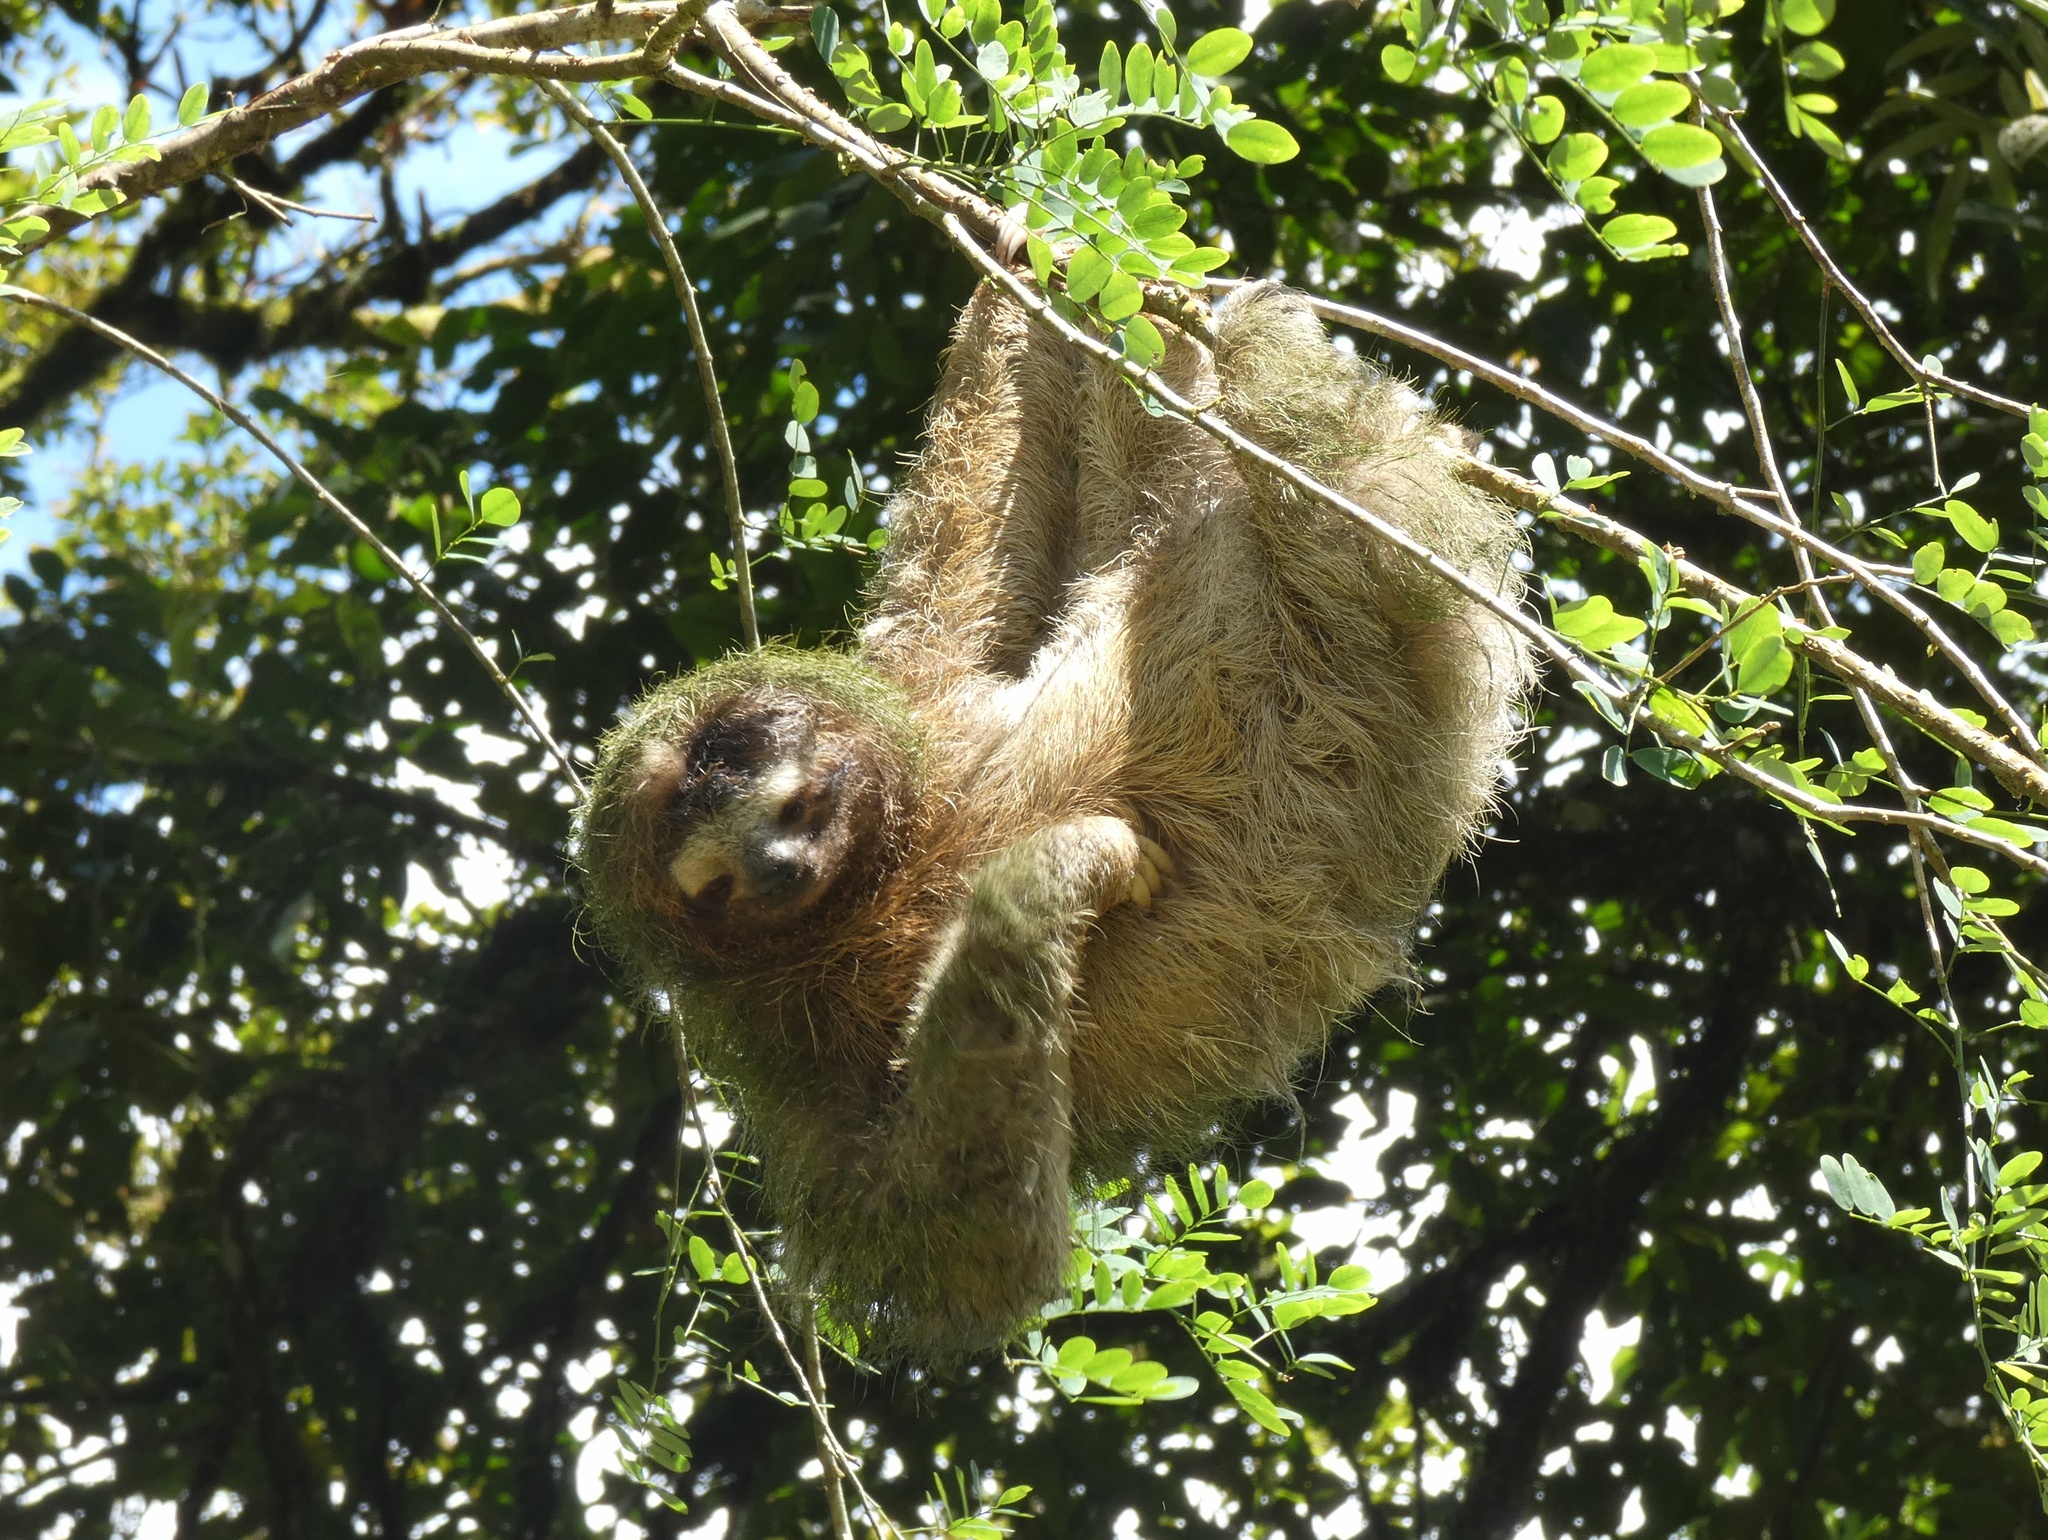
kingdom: Animalia
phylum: Chordata
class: Mammalia
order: Pilosa
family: Bradypodidae
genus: Bradypus
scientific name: Bradypus variegatus
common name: Brown-throated three-toed sloth
